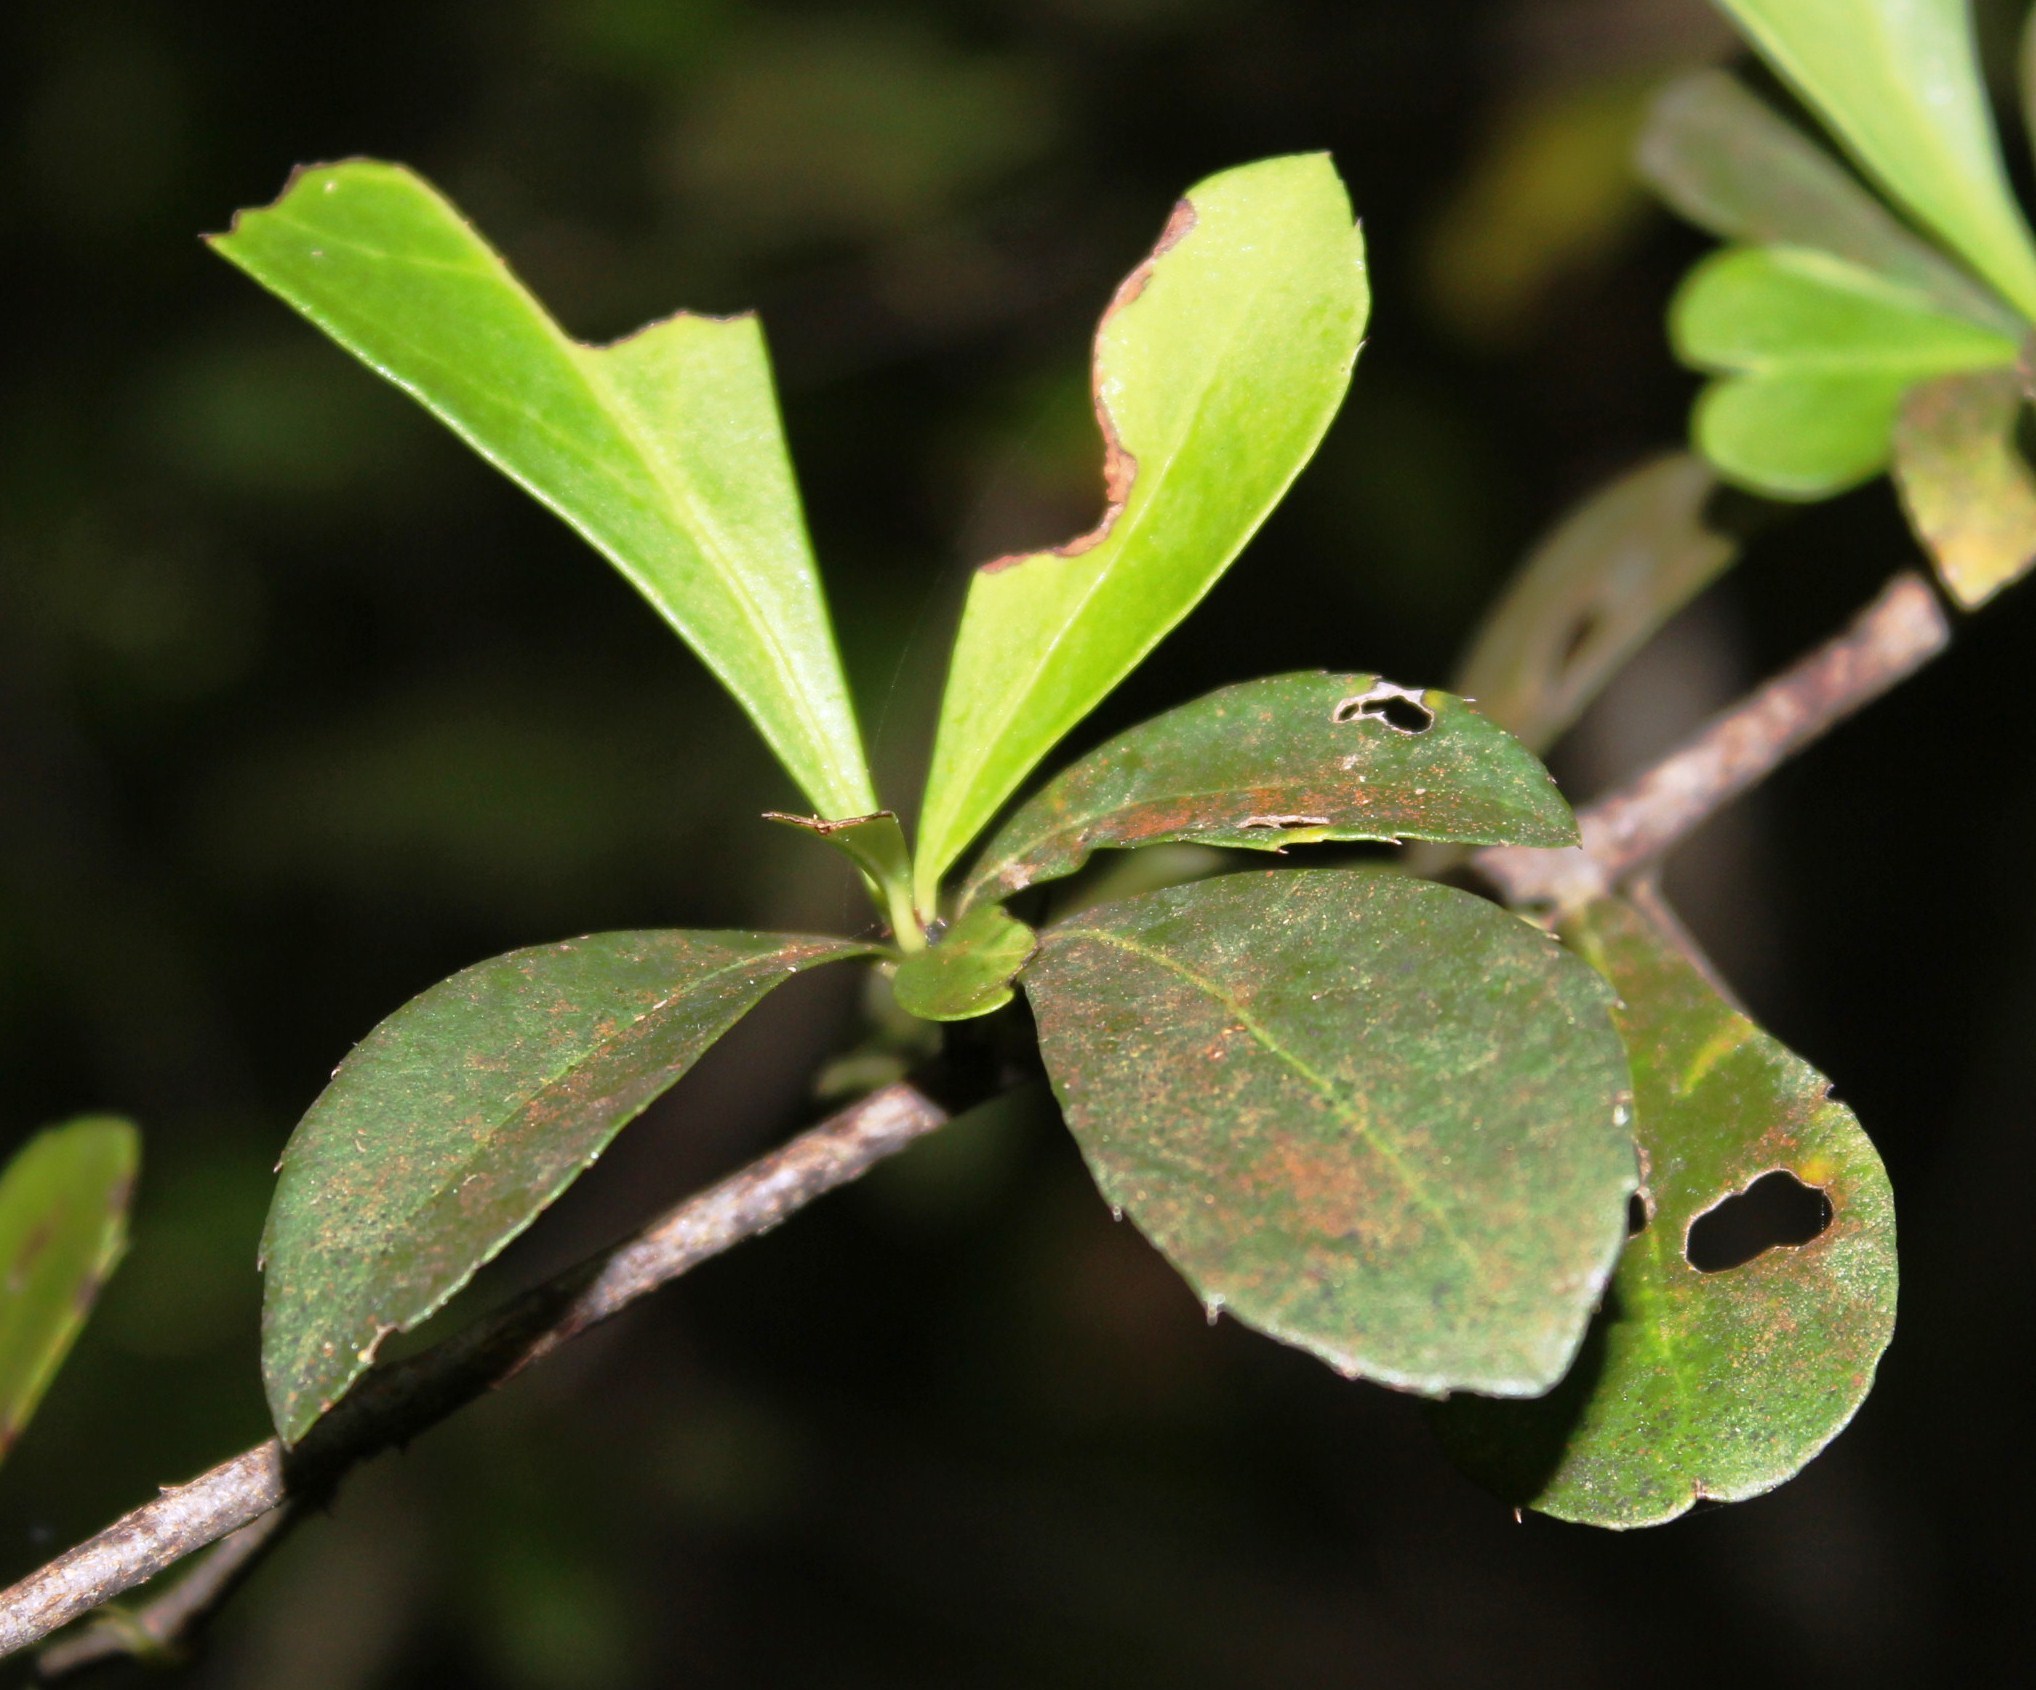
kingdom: Plantae
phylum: Tracheophyta
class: Magnoliopsida
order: Celastrales
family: Celastraceae
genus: Gymnosporia
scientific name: Gymnosporia nemorosa
